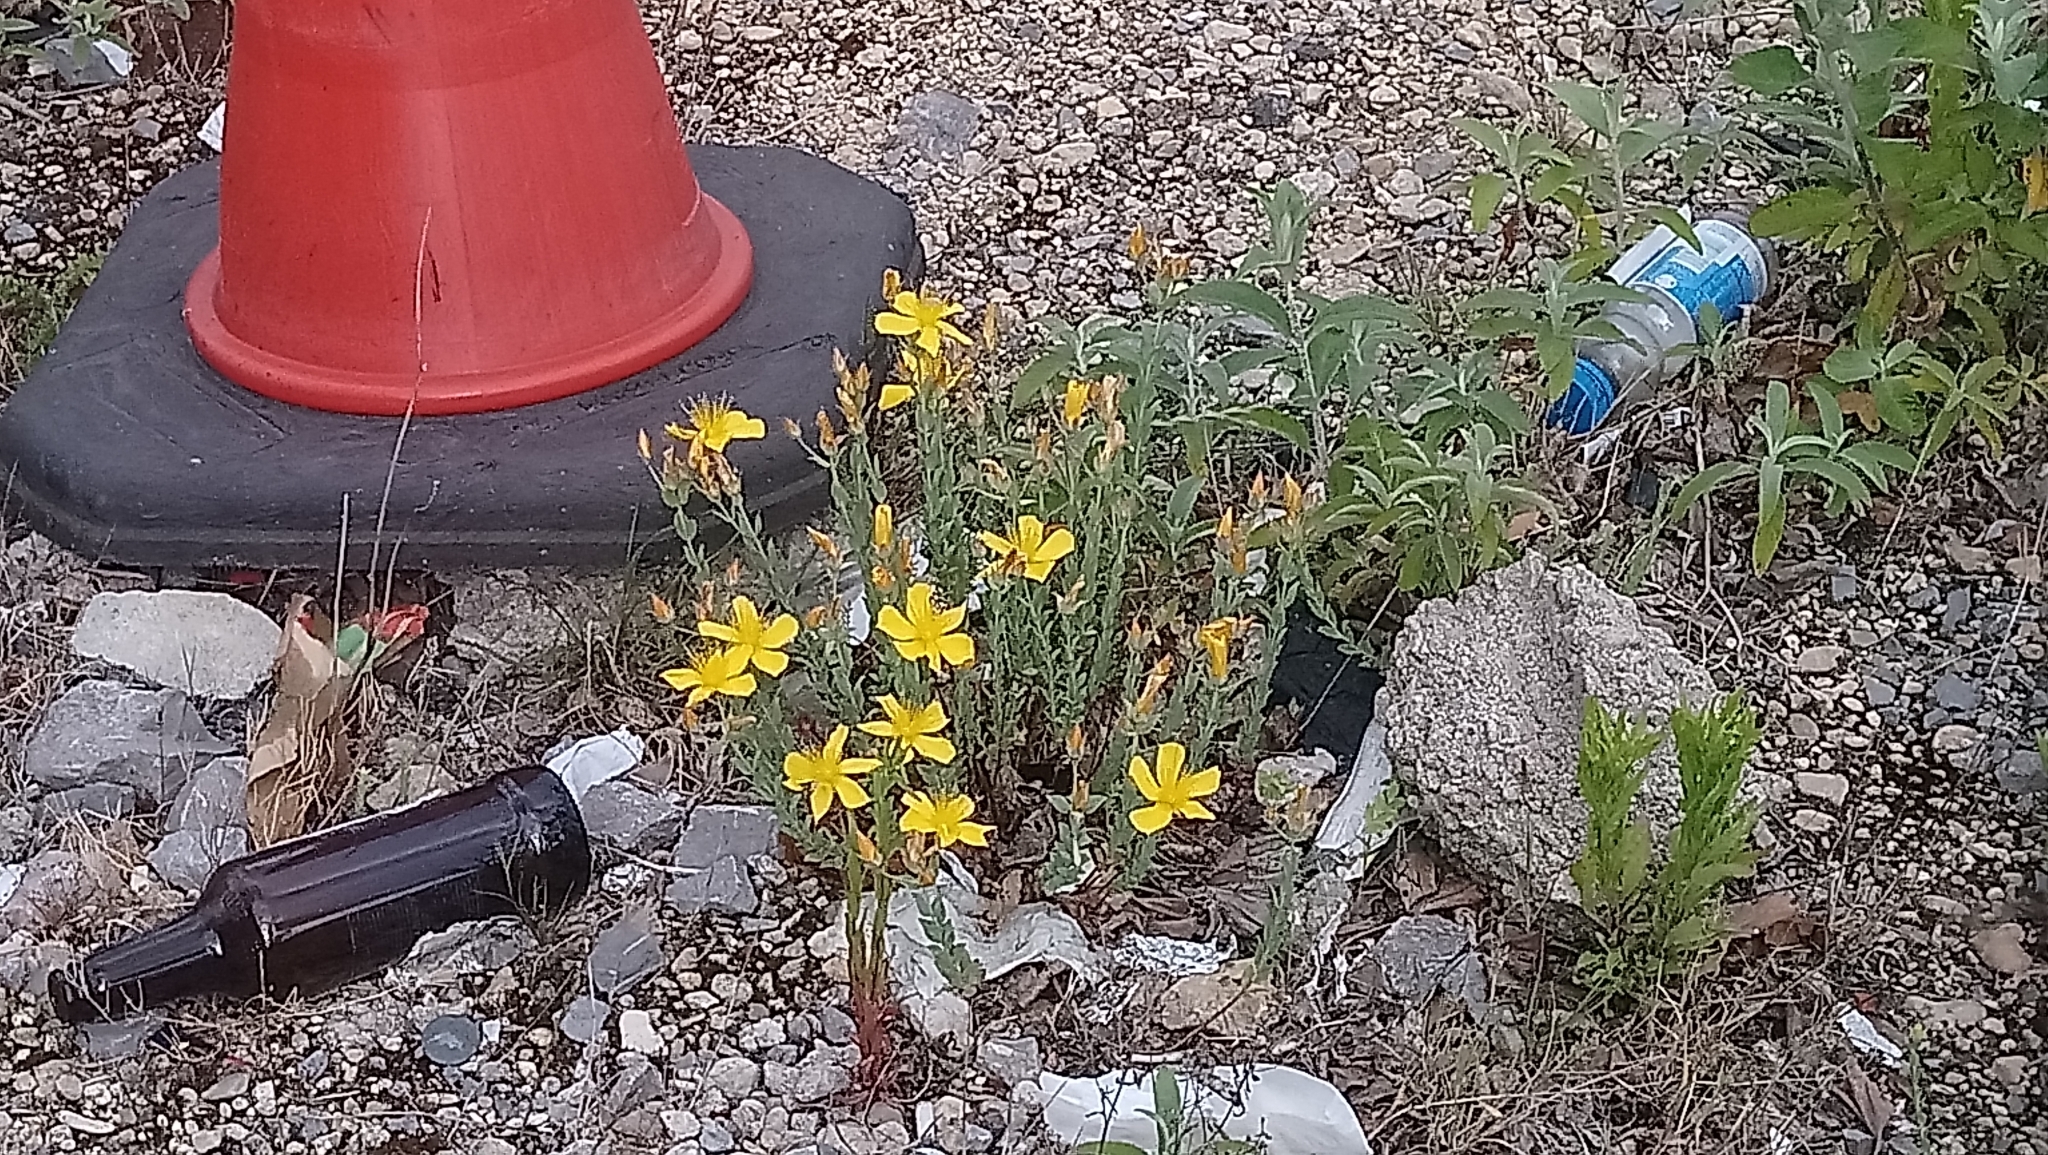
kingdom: Plantae
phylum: Tracheophyta
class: Magnoliopsida
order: Malpighiales
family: Hypericaceae
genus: Hypericum
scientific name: Hypericum olympicum
